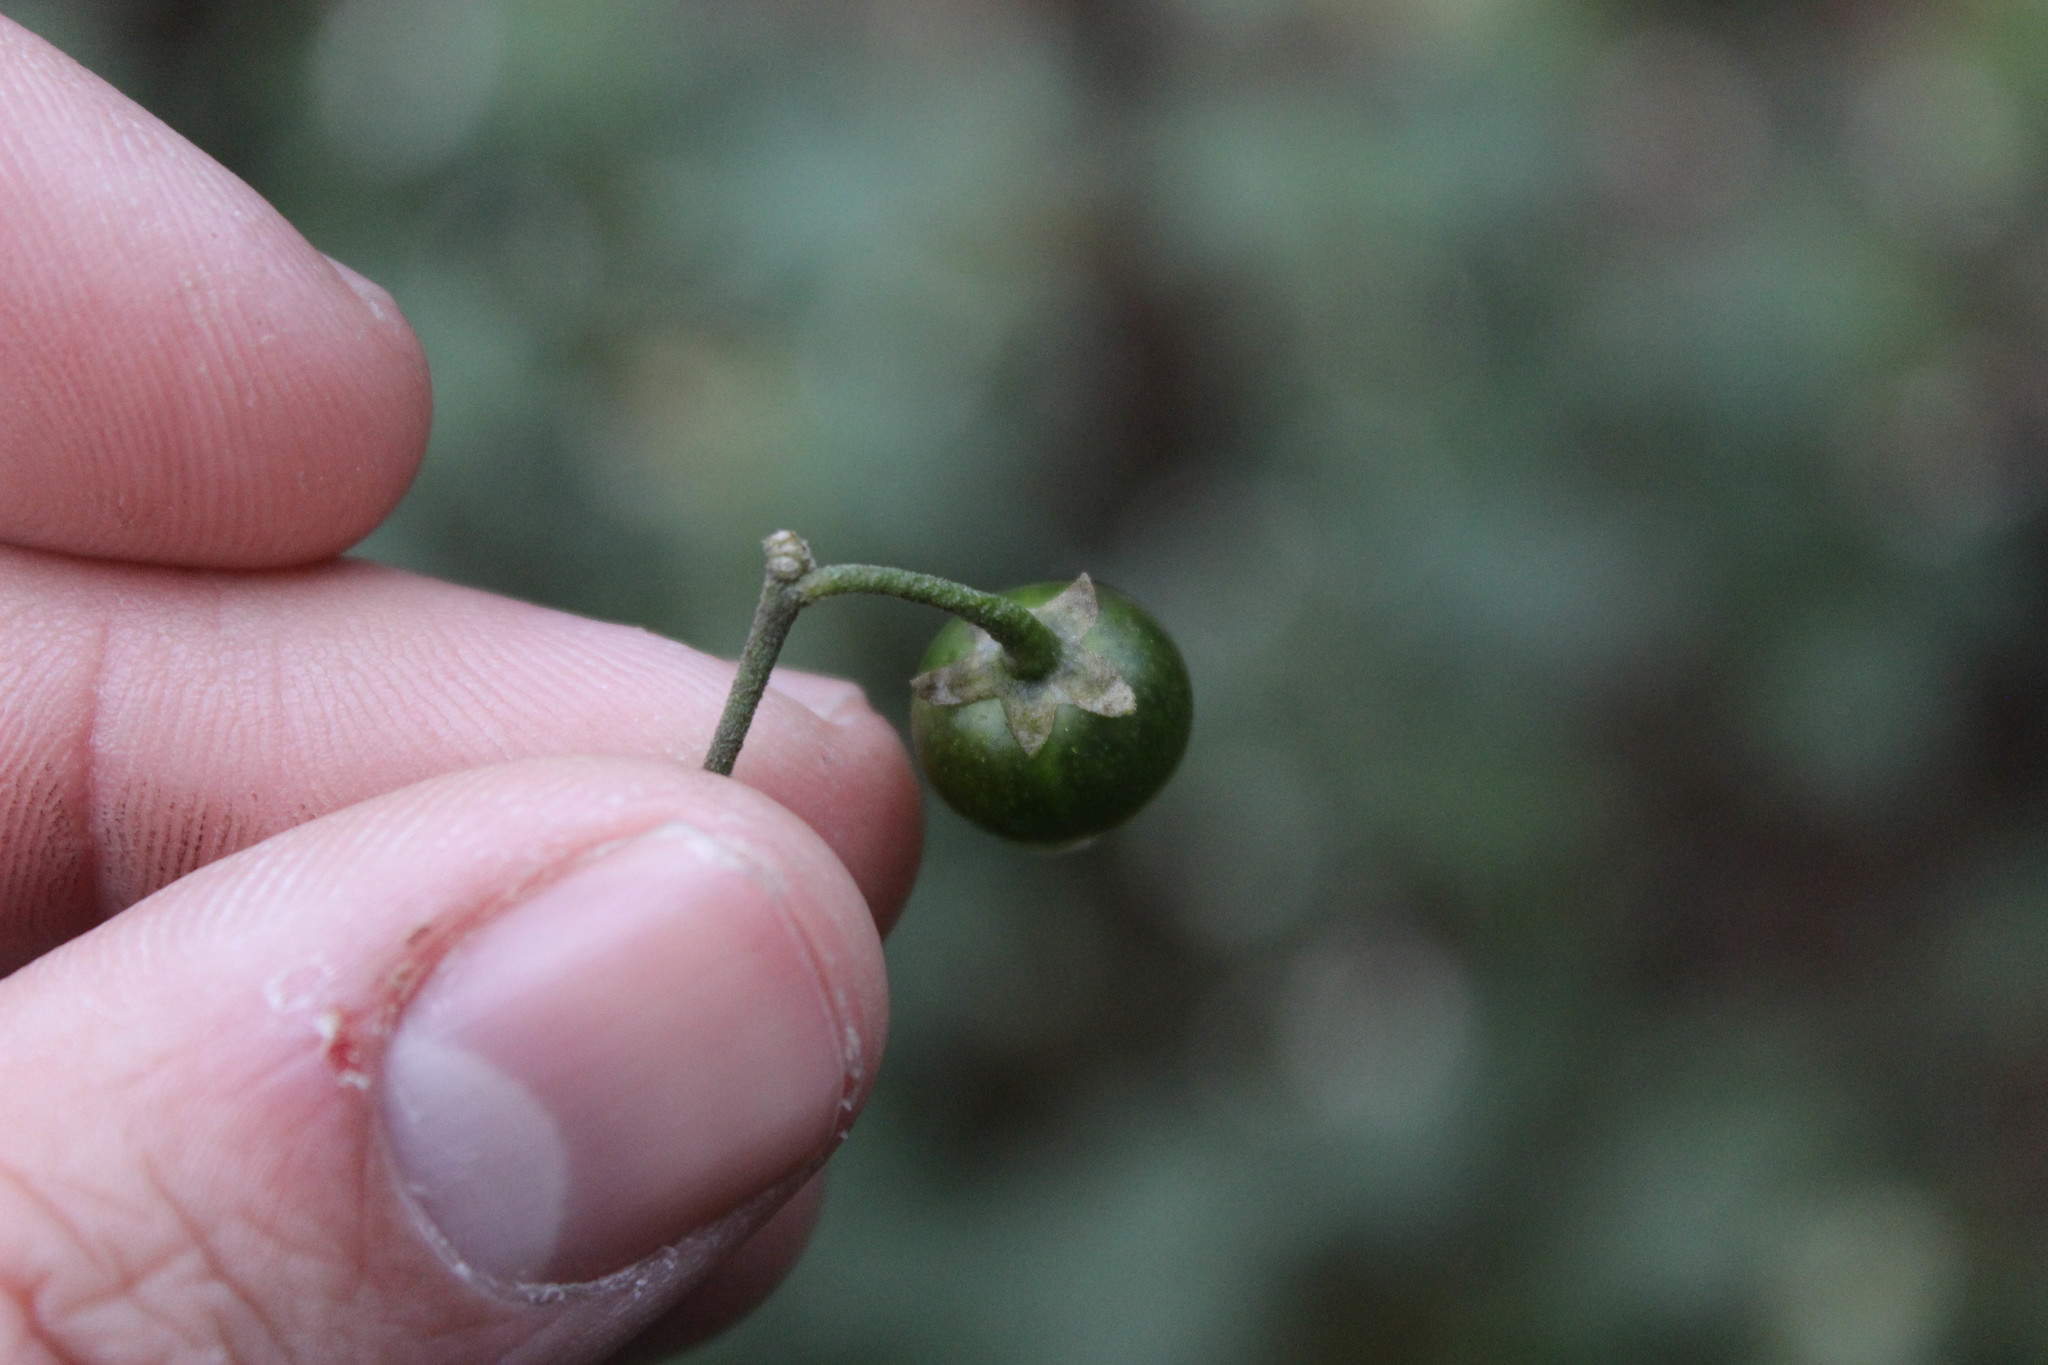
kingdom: Plantae
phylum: Tracheophyta
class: Magnoliopsida
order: Solanales
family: Solanaceae
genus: Solanum
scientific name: Solanum douglasii
